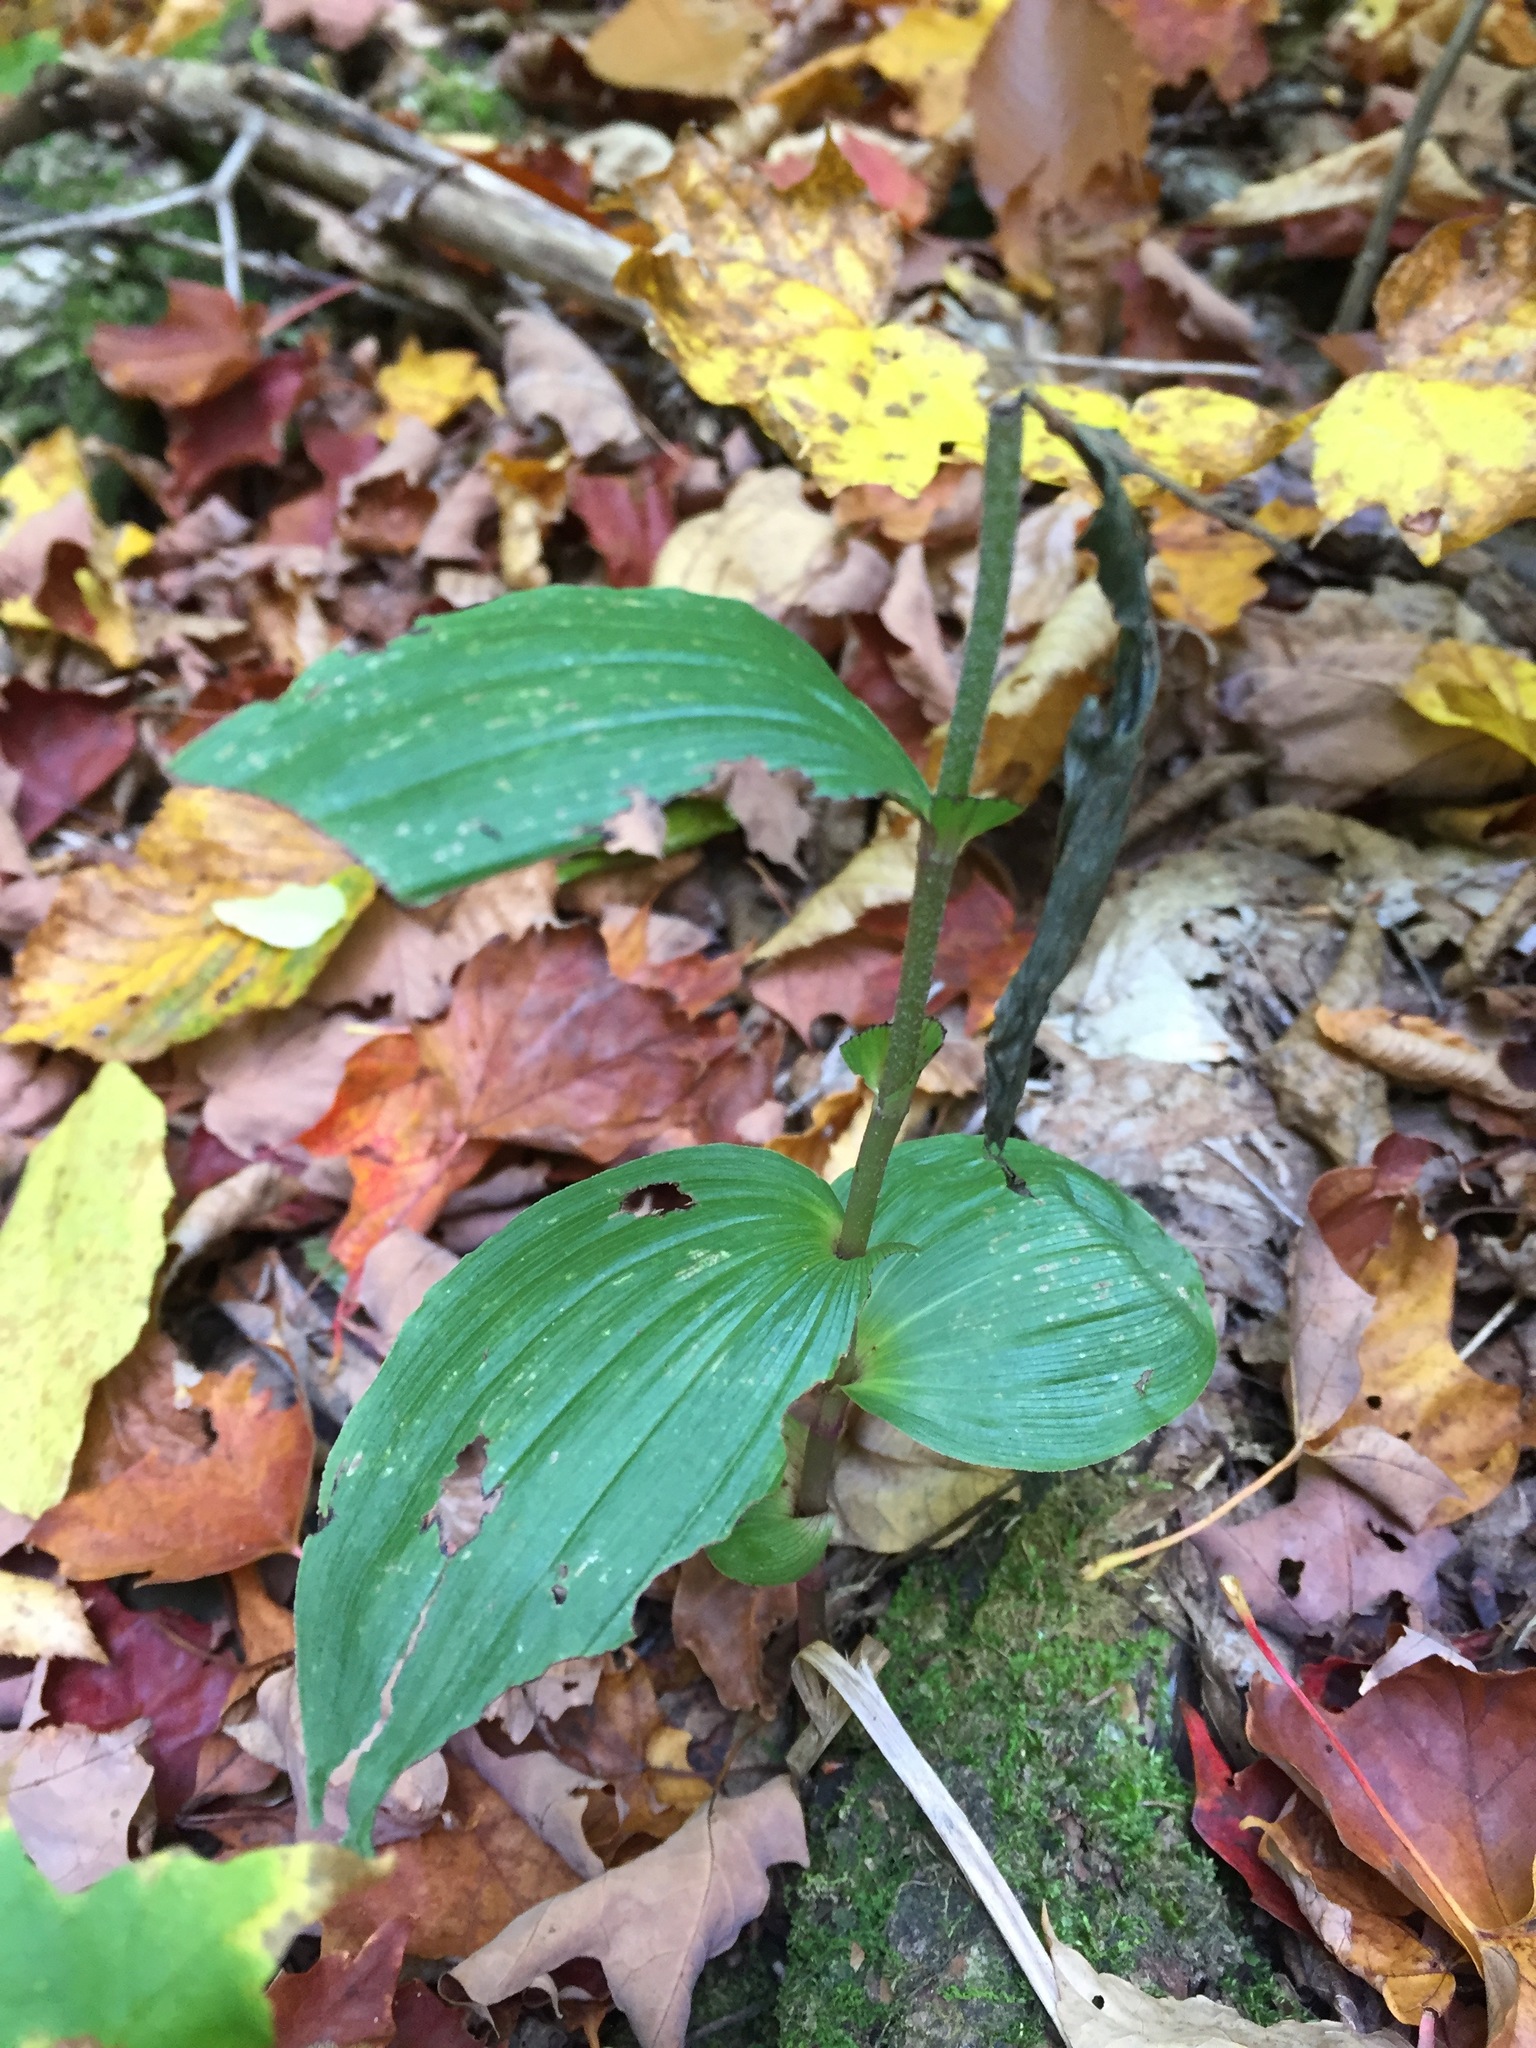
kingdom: Plantae
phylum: Tracheophyta
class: Liliopsida
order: Asparagales
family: Orchidaceae
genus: Epipactis
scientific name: Epipactis helleborine
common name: Broad-leaved helleborine
